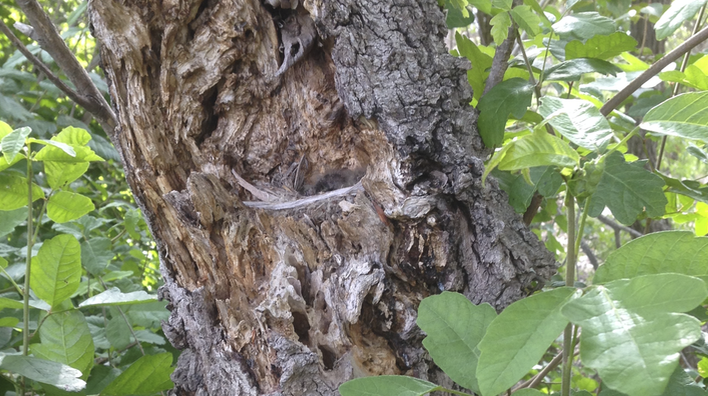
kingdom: Animalia
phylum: Chordata
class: Aves
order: Passeriformes
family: Tyrannidae
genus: Empidonax
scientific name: Empidonax difficilis
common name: Pacific-slope flycatcher
